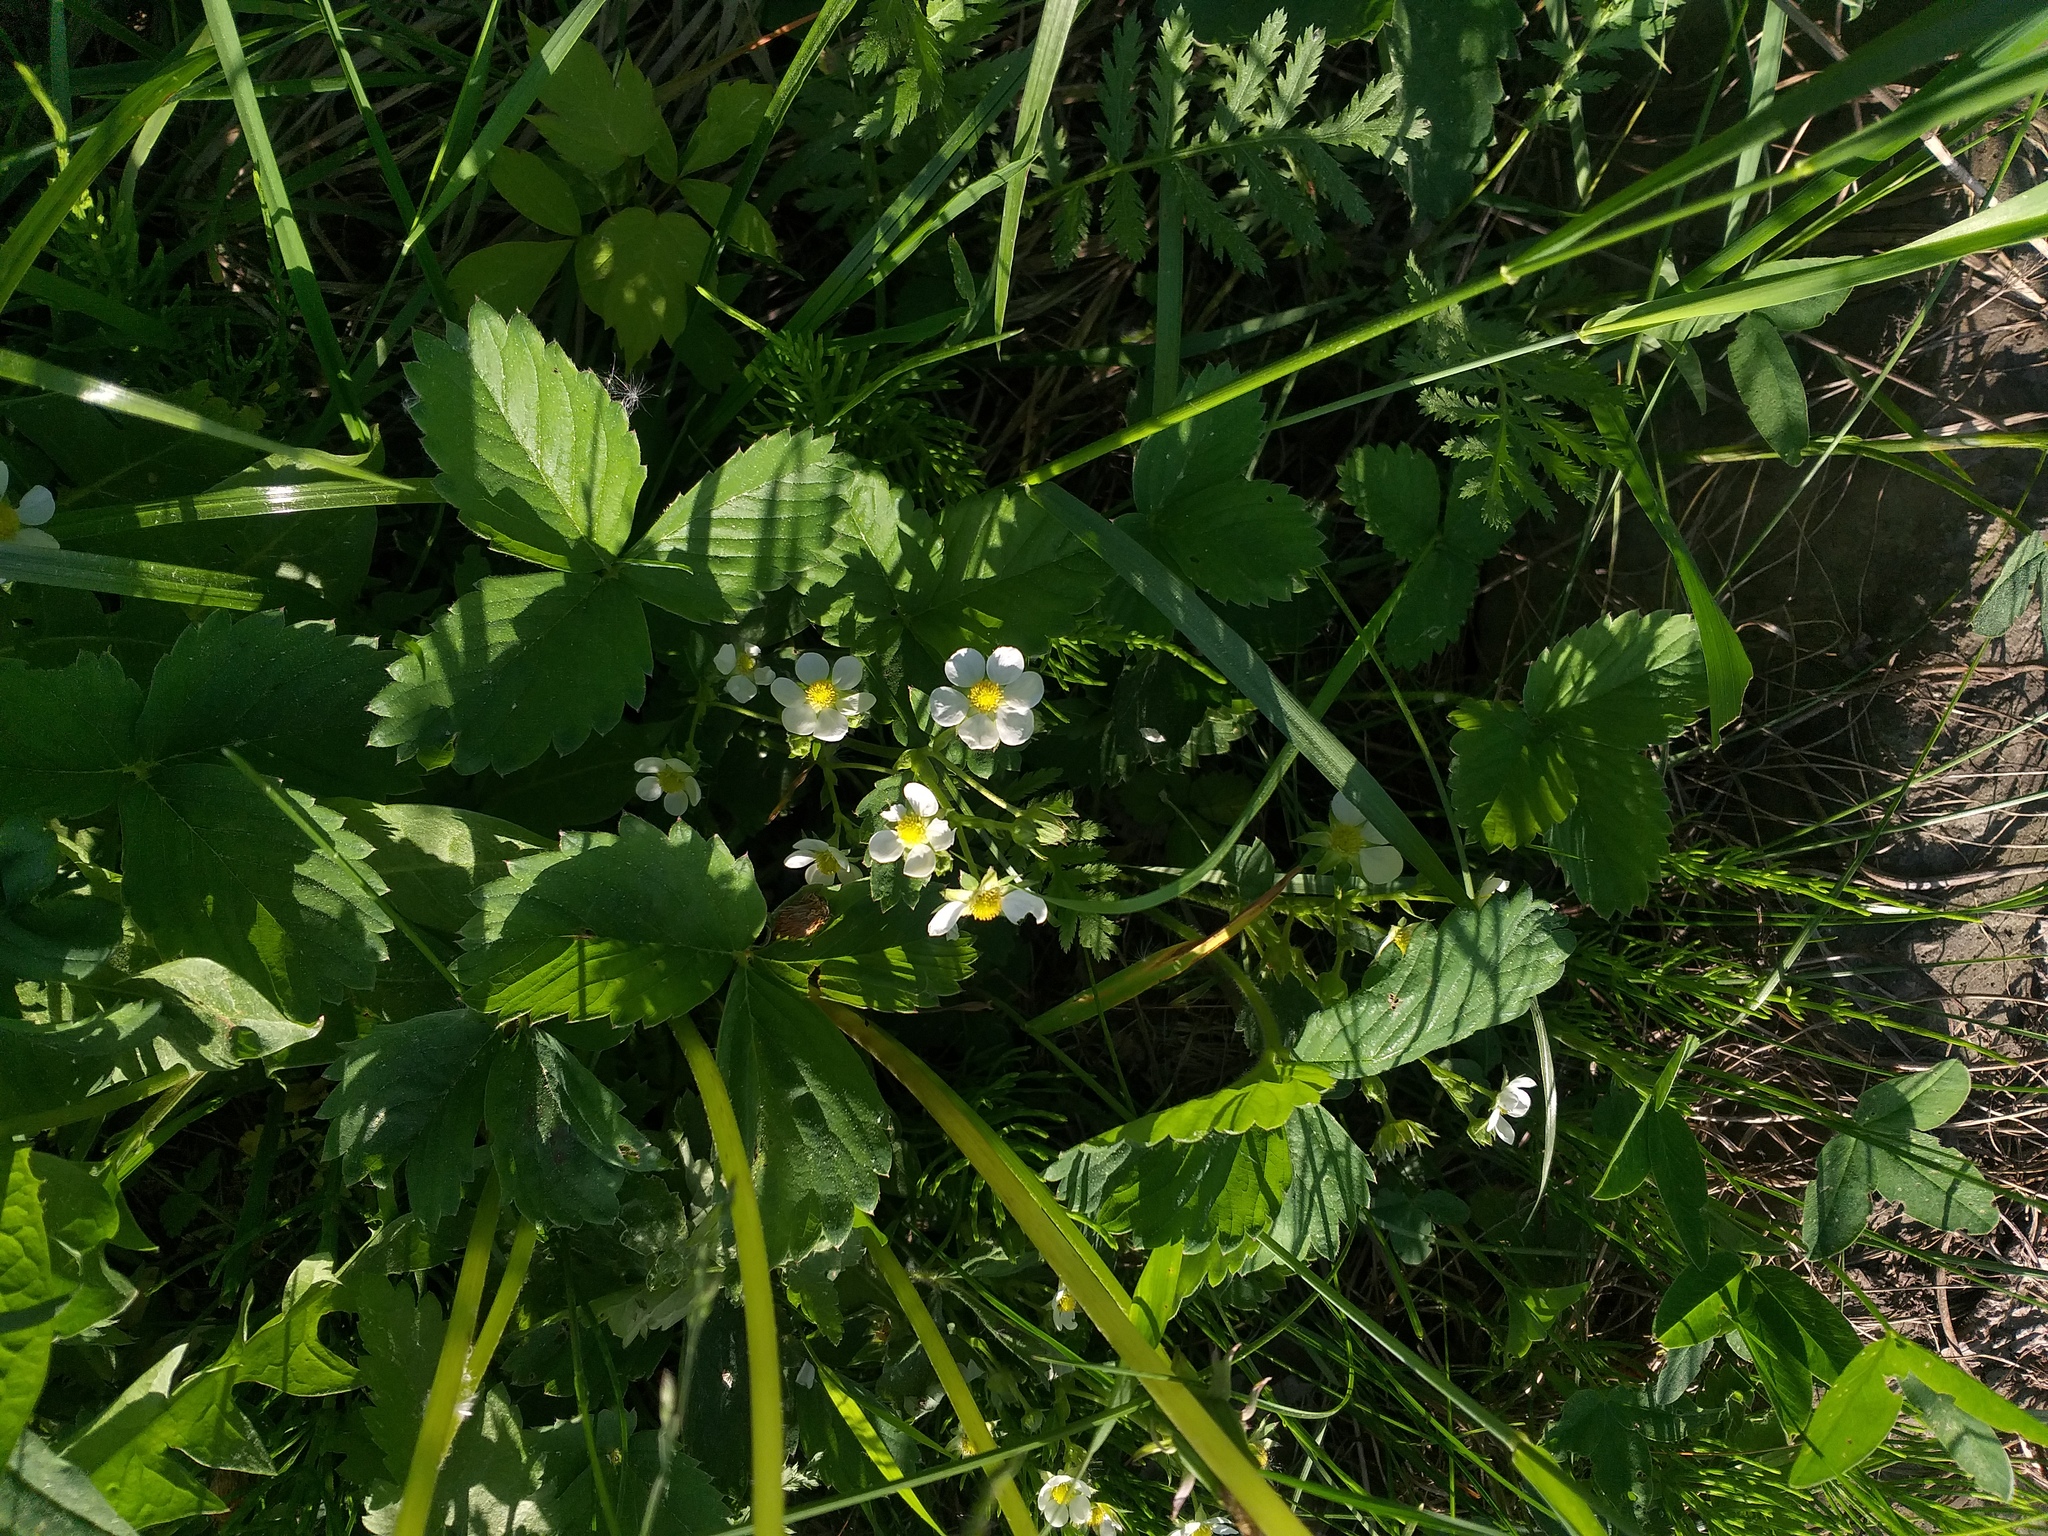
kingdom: Plantae
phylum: Tracheophyta
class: Magnoliopsida
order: Rosales
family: Rosaceae
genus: Fragaria
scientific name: Fragaria ananassa
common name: Garden strawberry
